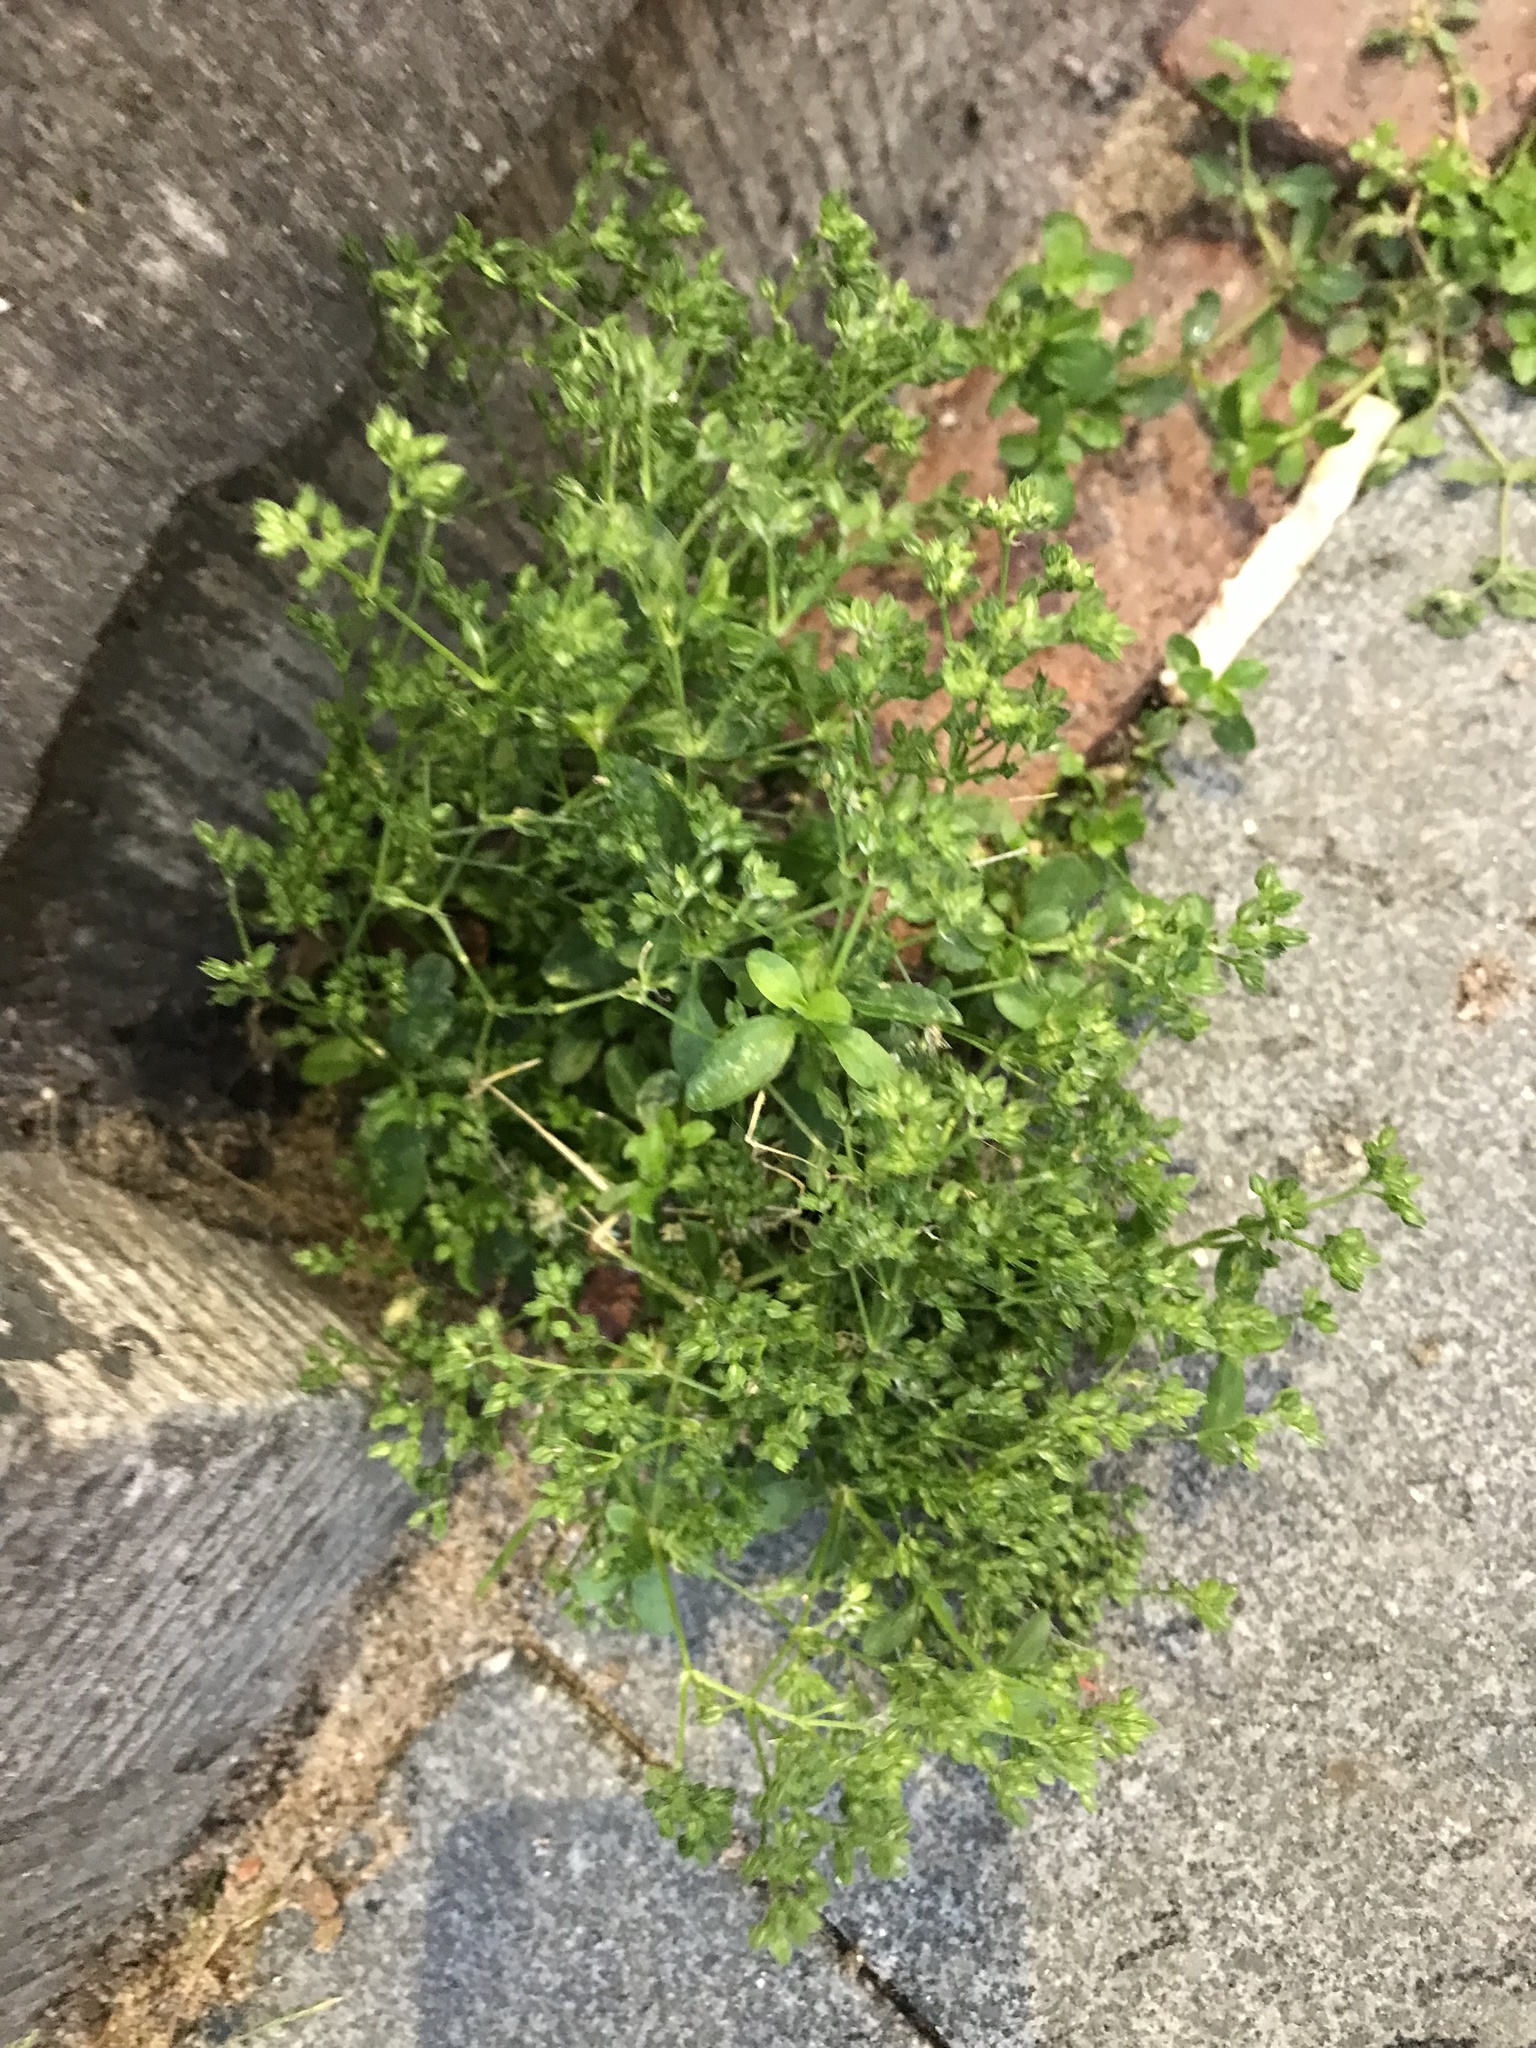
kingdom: Plantae
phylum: Tracheophyta
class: Magnoliopsida
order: Caryophyllales
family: Caryophyllaceae
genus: Polycarpon
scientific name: Polycarpon tetraphyllum
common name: Four-leaved all-seed
